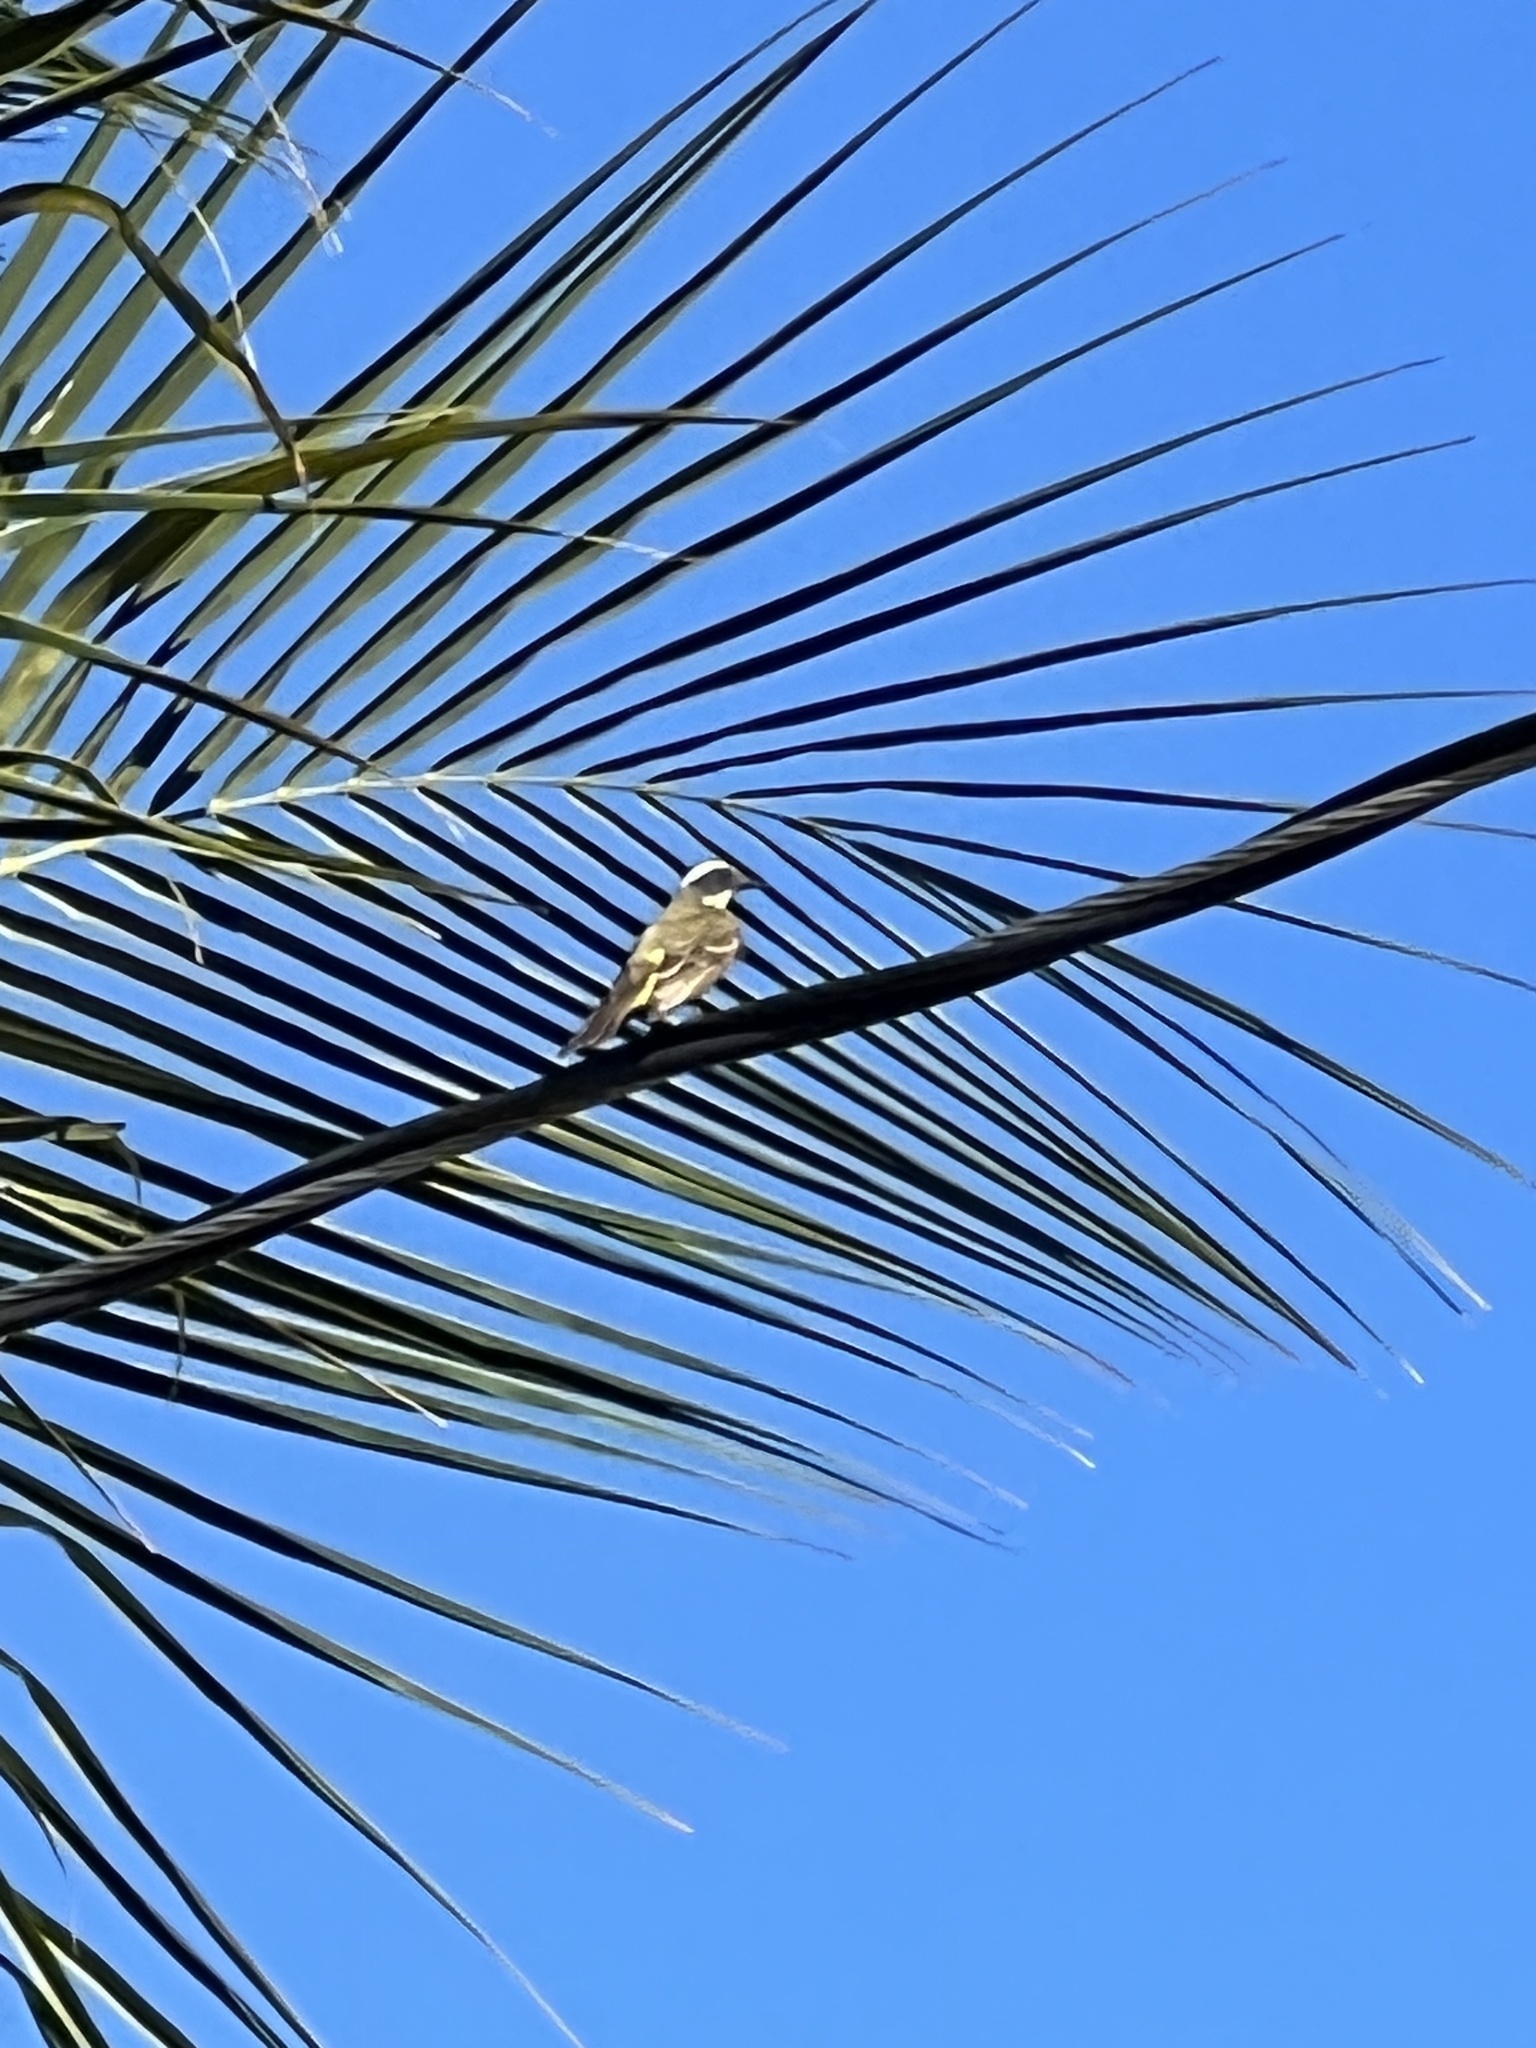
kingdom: Animalia
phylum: Chordata
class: Aves
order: Passeriformes
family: Tyrannidae
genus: Myiozetetes
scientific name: Myiozetetes similis
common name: Social flycatcher
